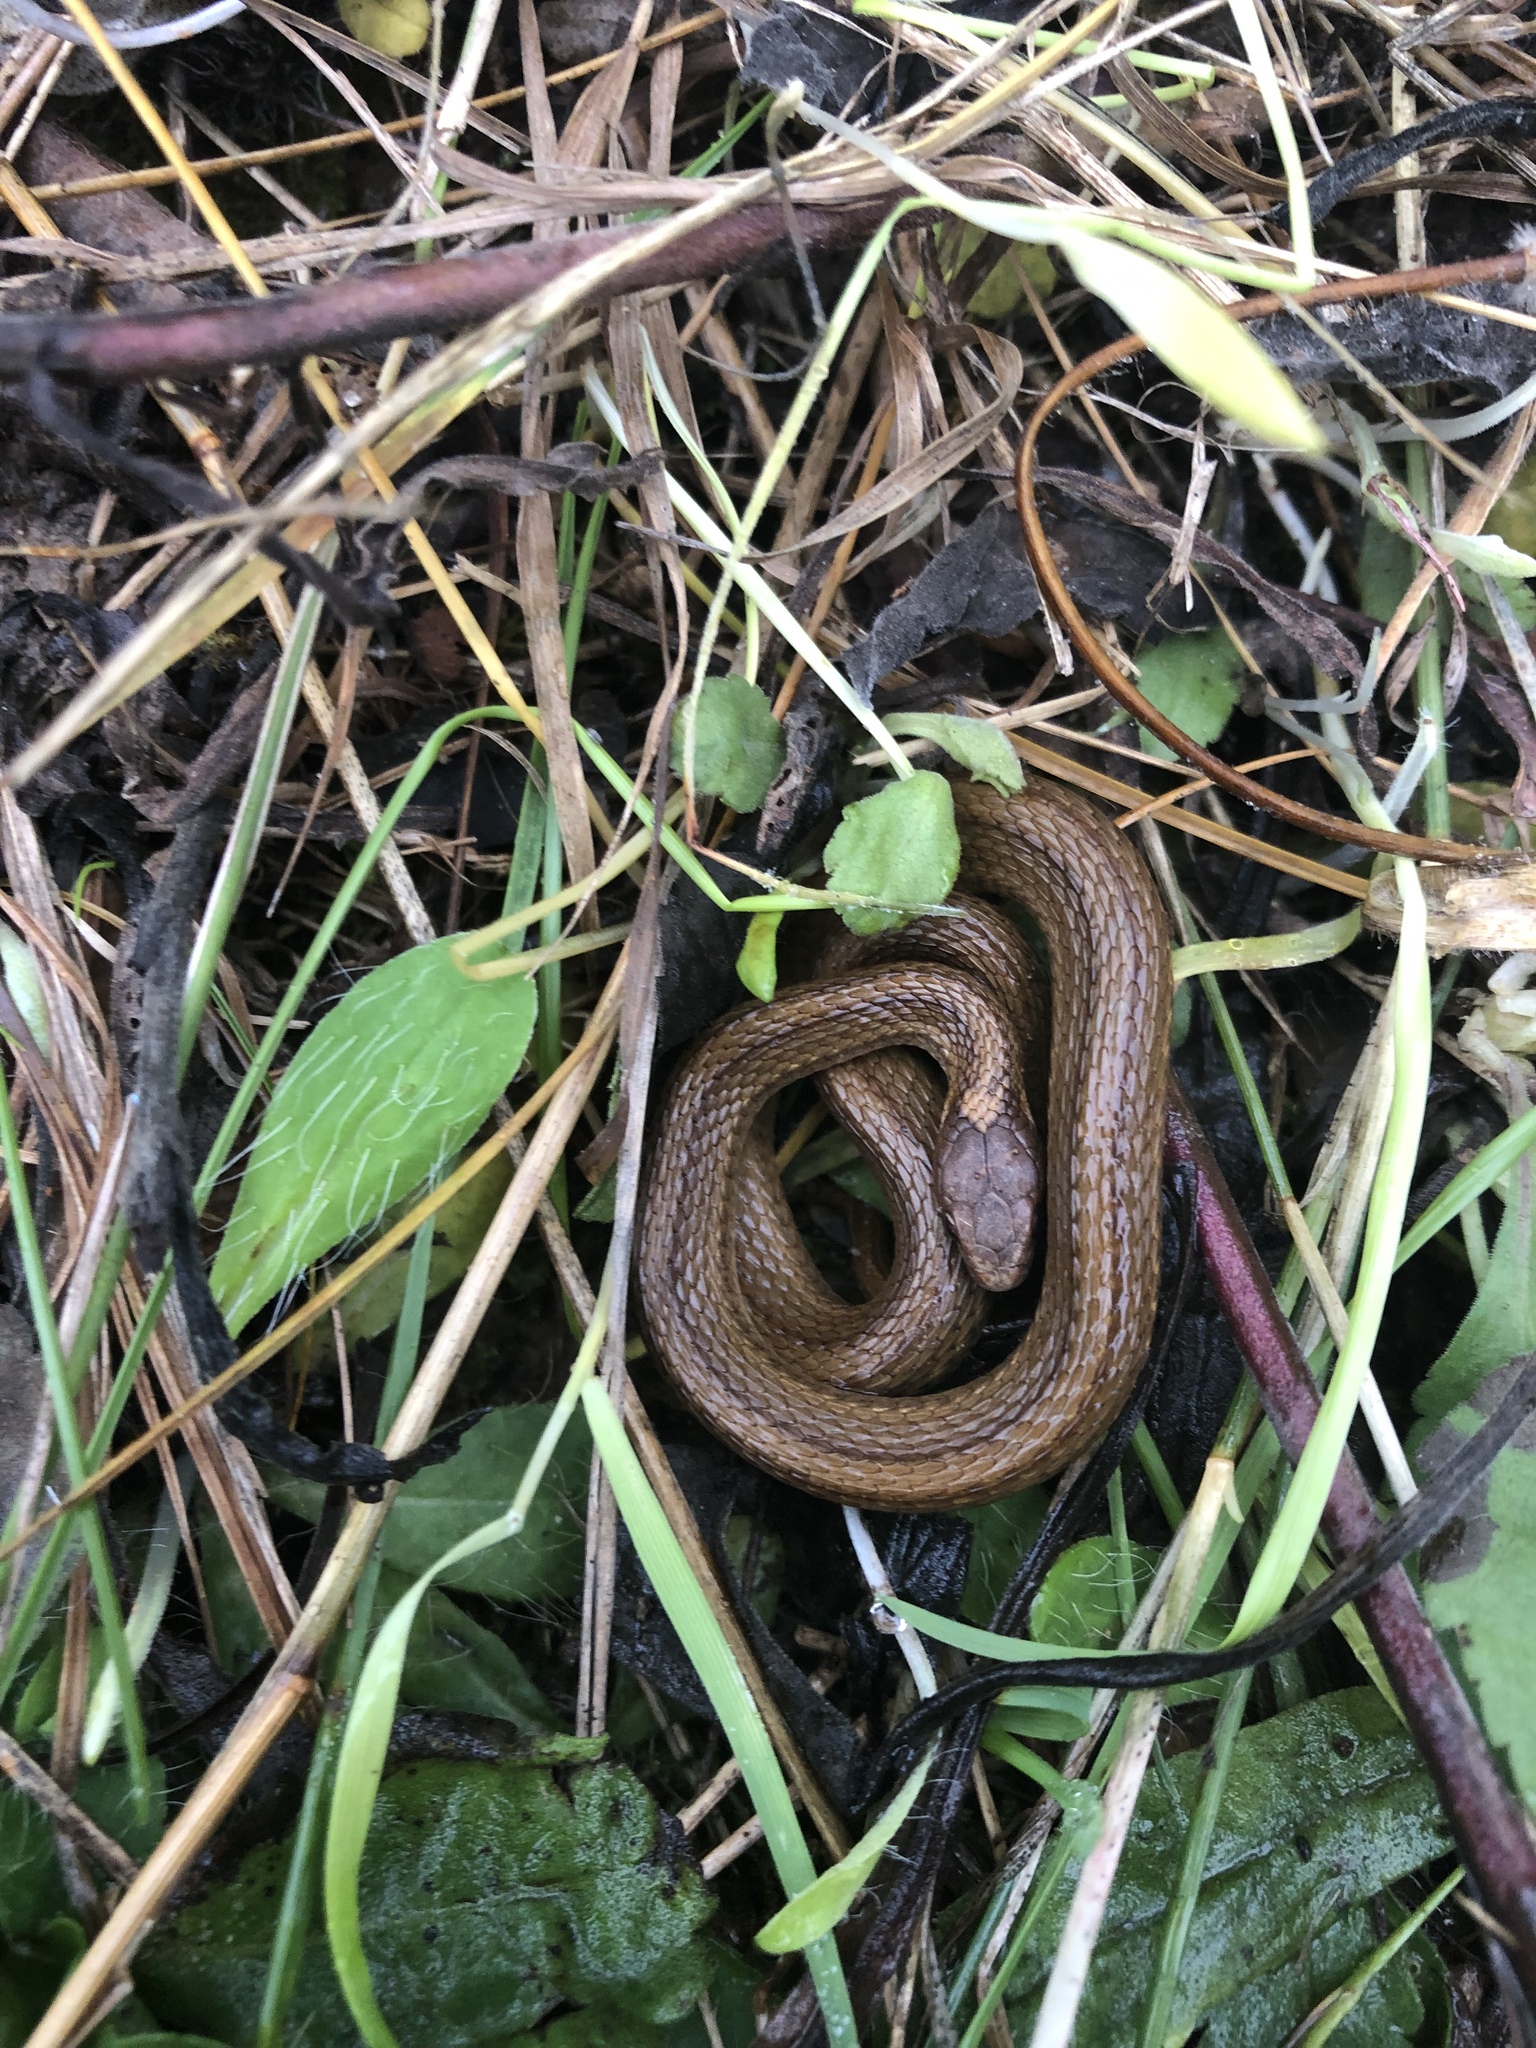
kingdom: Animalia
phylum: Chordata
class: Squamata
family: Colubridae
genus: Storeria
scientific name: Storeria occipitomaculata
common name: Redbelly snake
